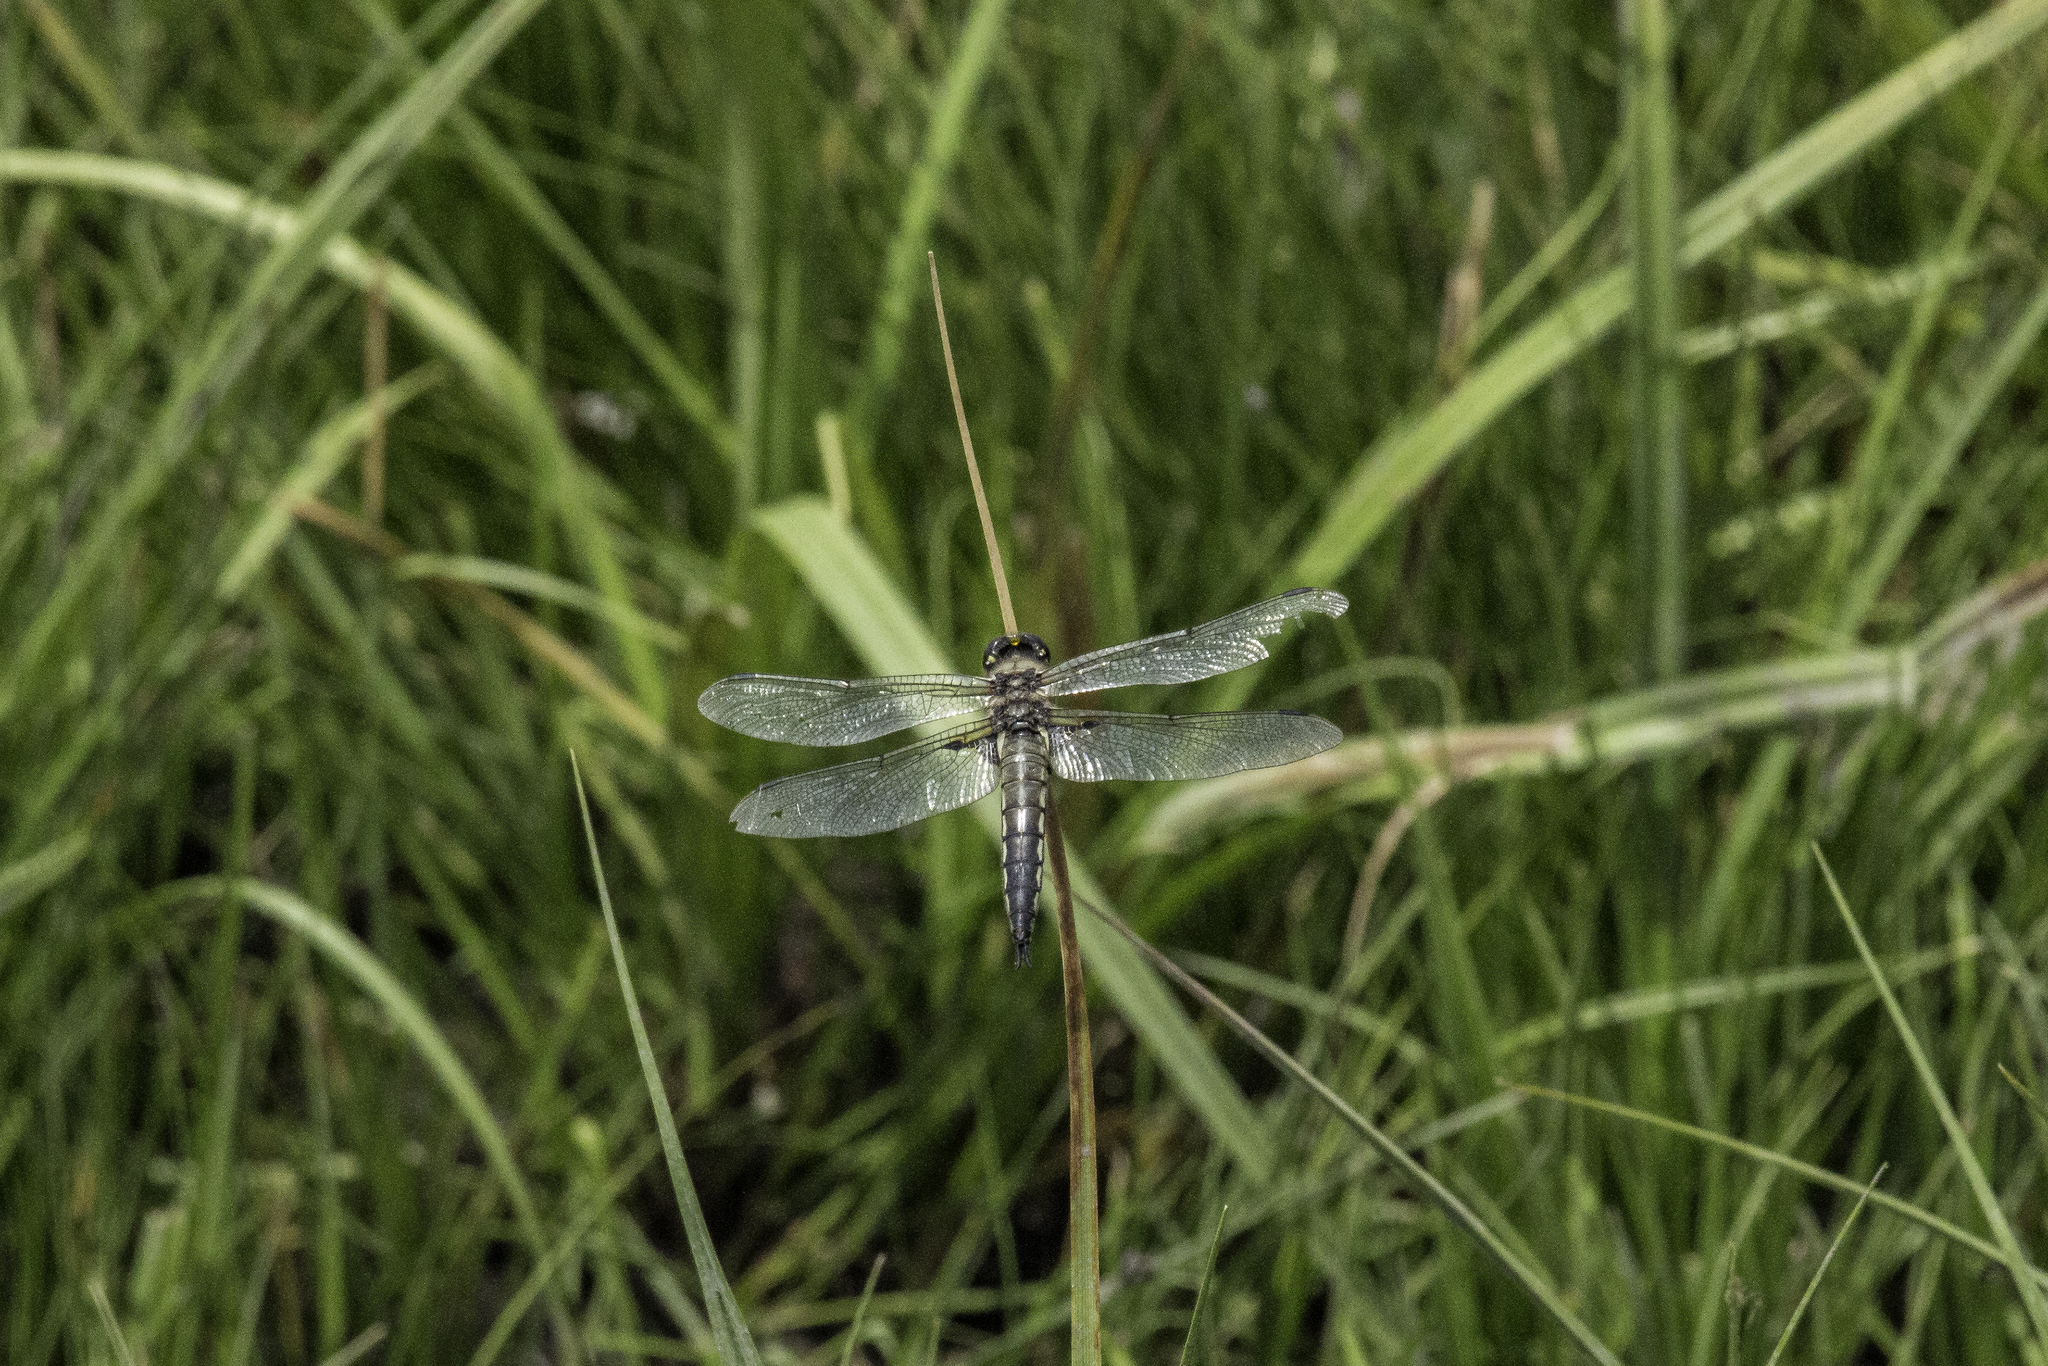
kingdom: Animalia
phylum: Arthropoda
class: Insecta
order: Odonata
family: Libellulidae
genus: Libellula
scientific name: Libellula quadrimaculata
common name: Four-spotted chaser
